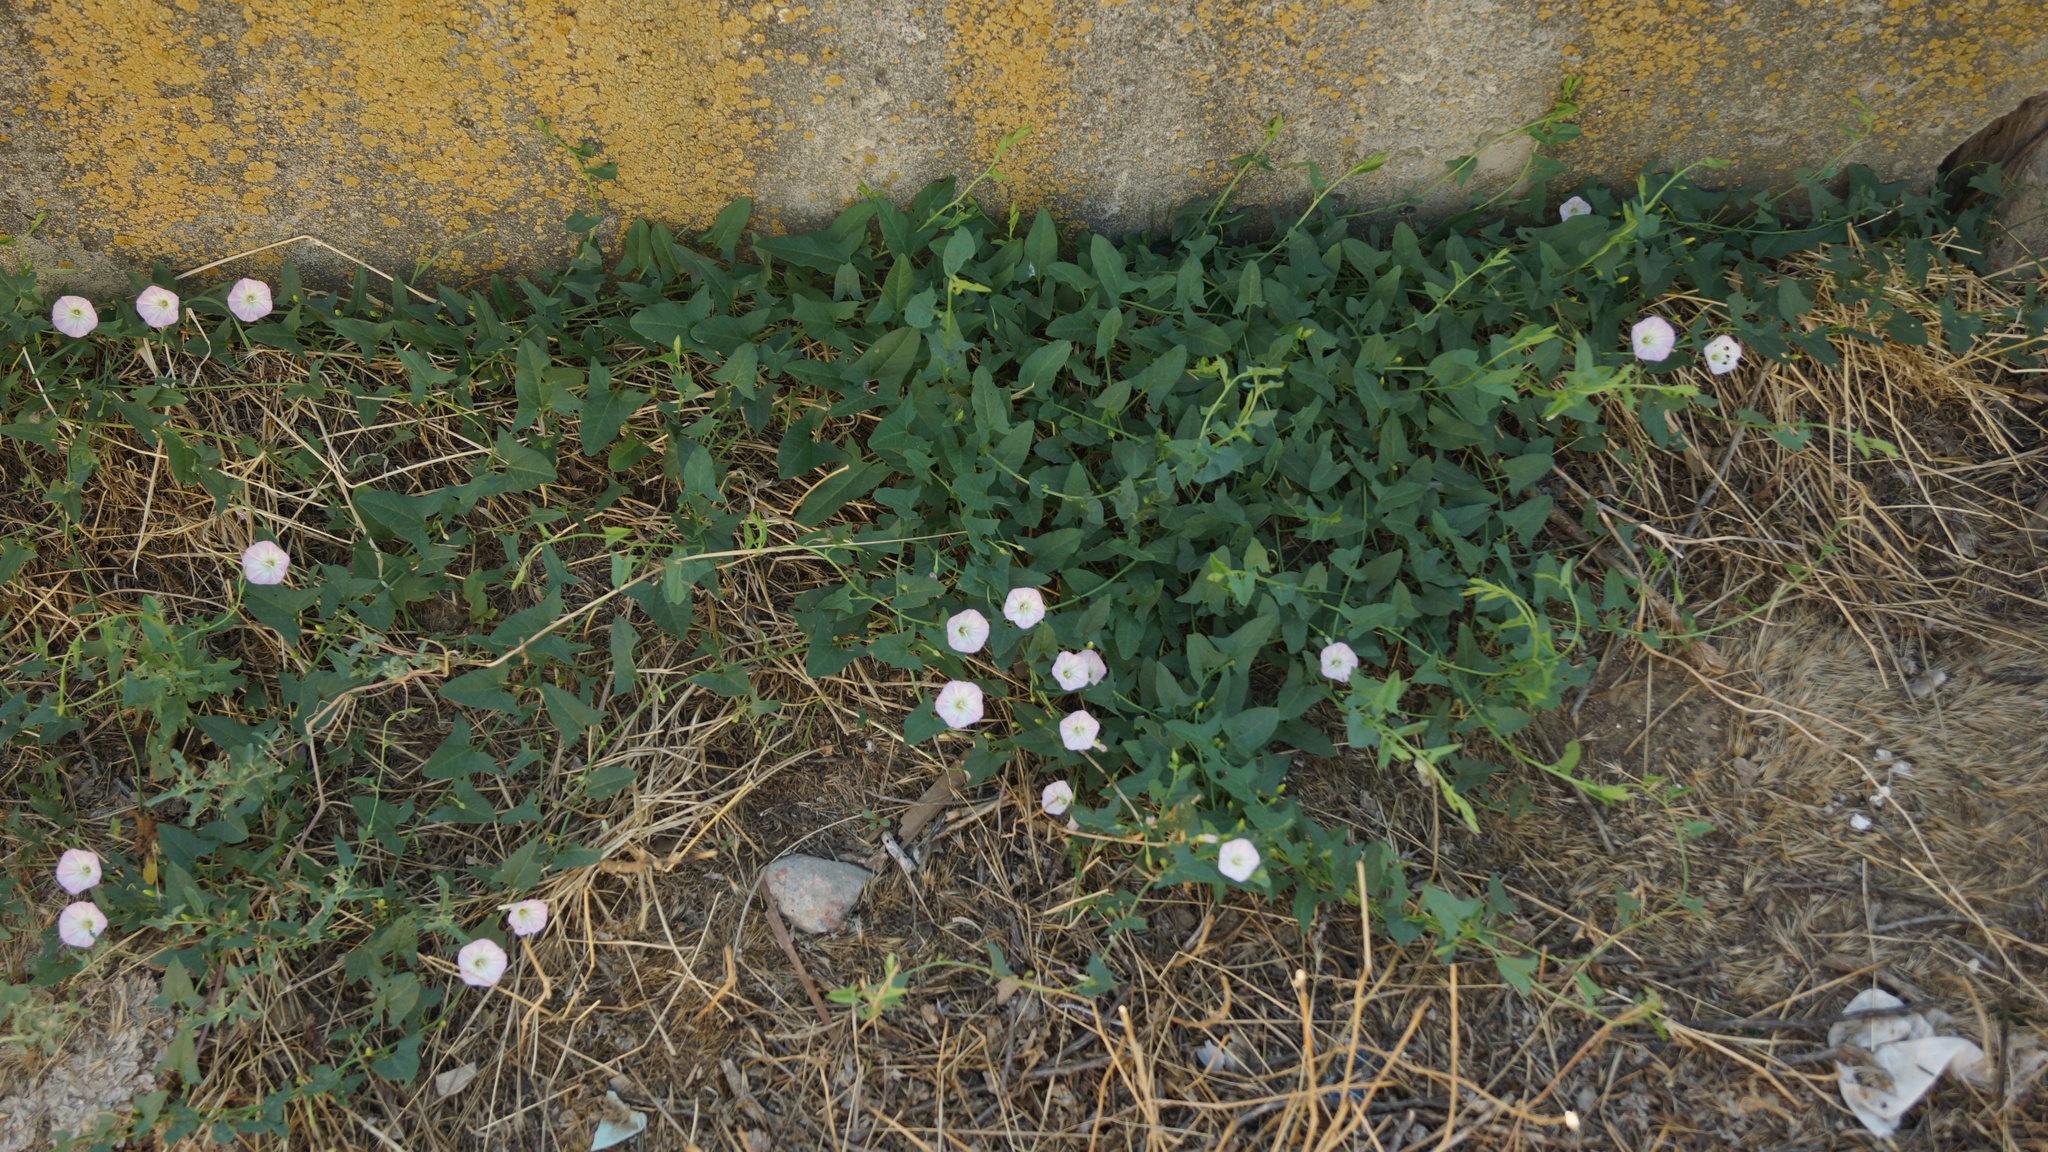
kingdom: Plantae
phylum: Tracheophyta
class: Magnoliopsida
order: Solanales
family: Convolvulaceae
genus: Convolvulus
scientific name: Convolvulus arvensis
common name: Field bindweed
